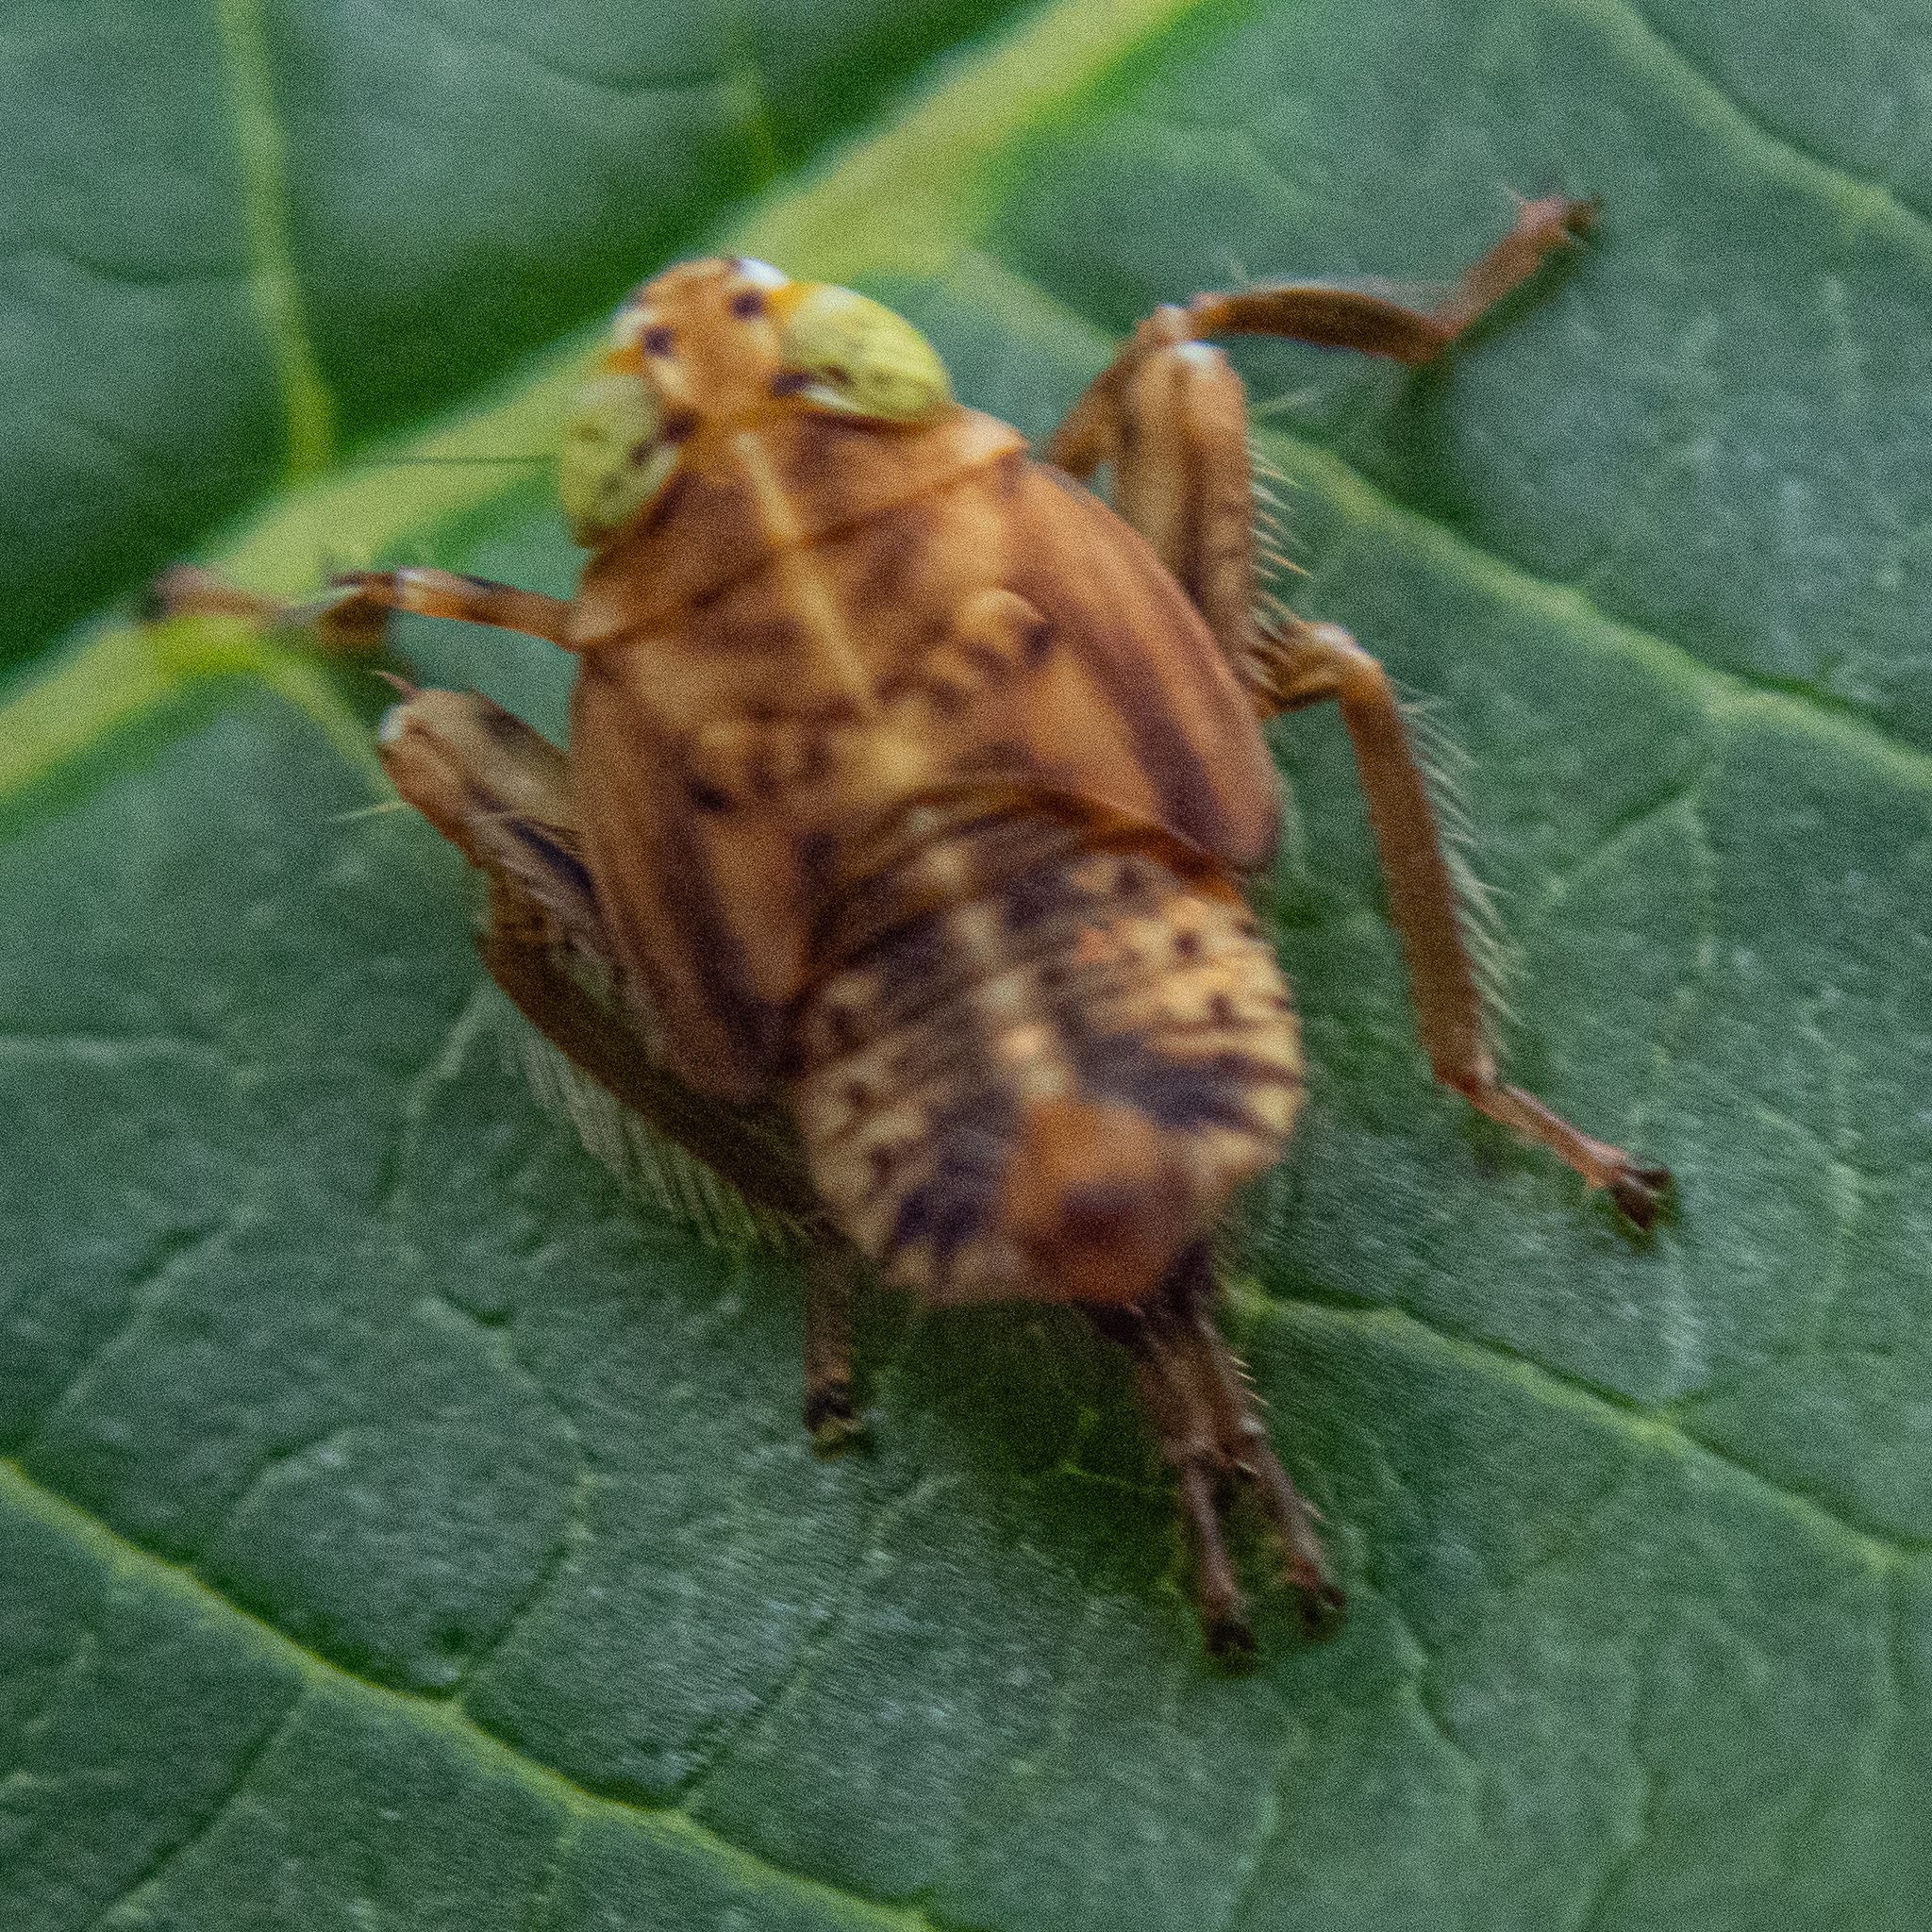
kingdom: Animalia
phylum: Arthropoda
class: Insecta
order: Hemiptera
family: Cicadellidae
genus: Jikradia
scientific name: Jikradia olitoria
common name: Coppery leafhopper
